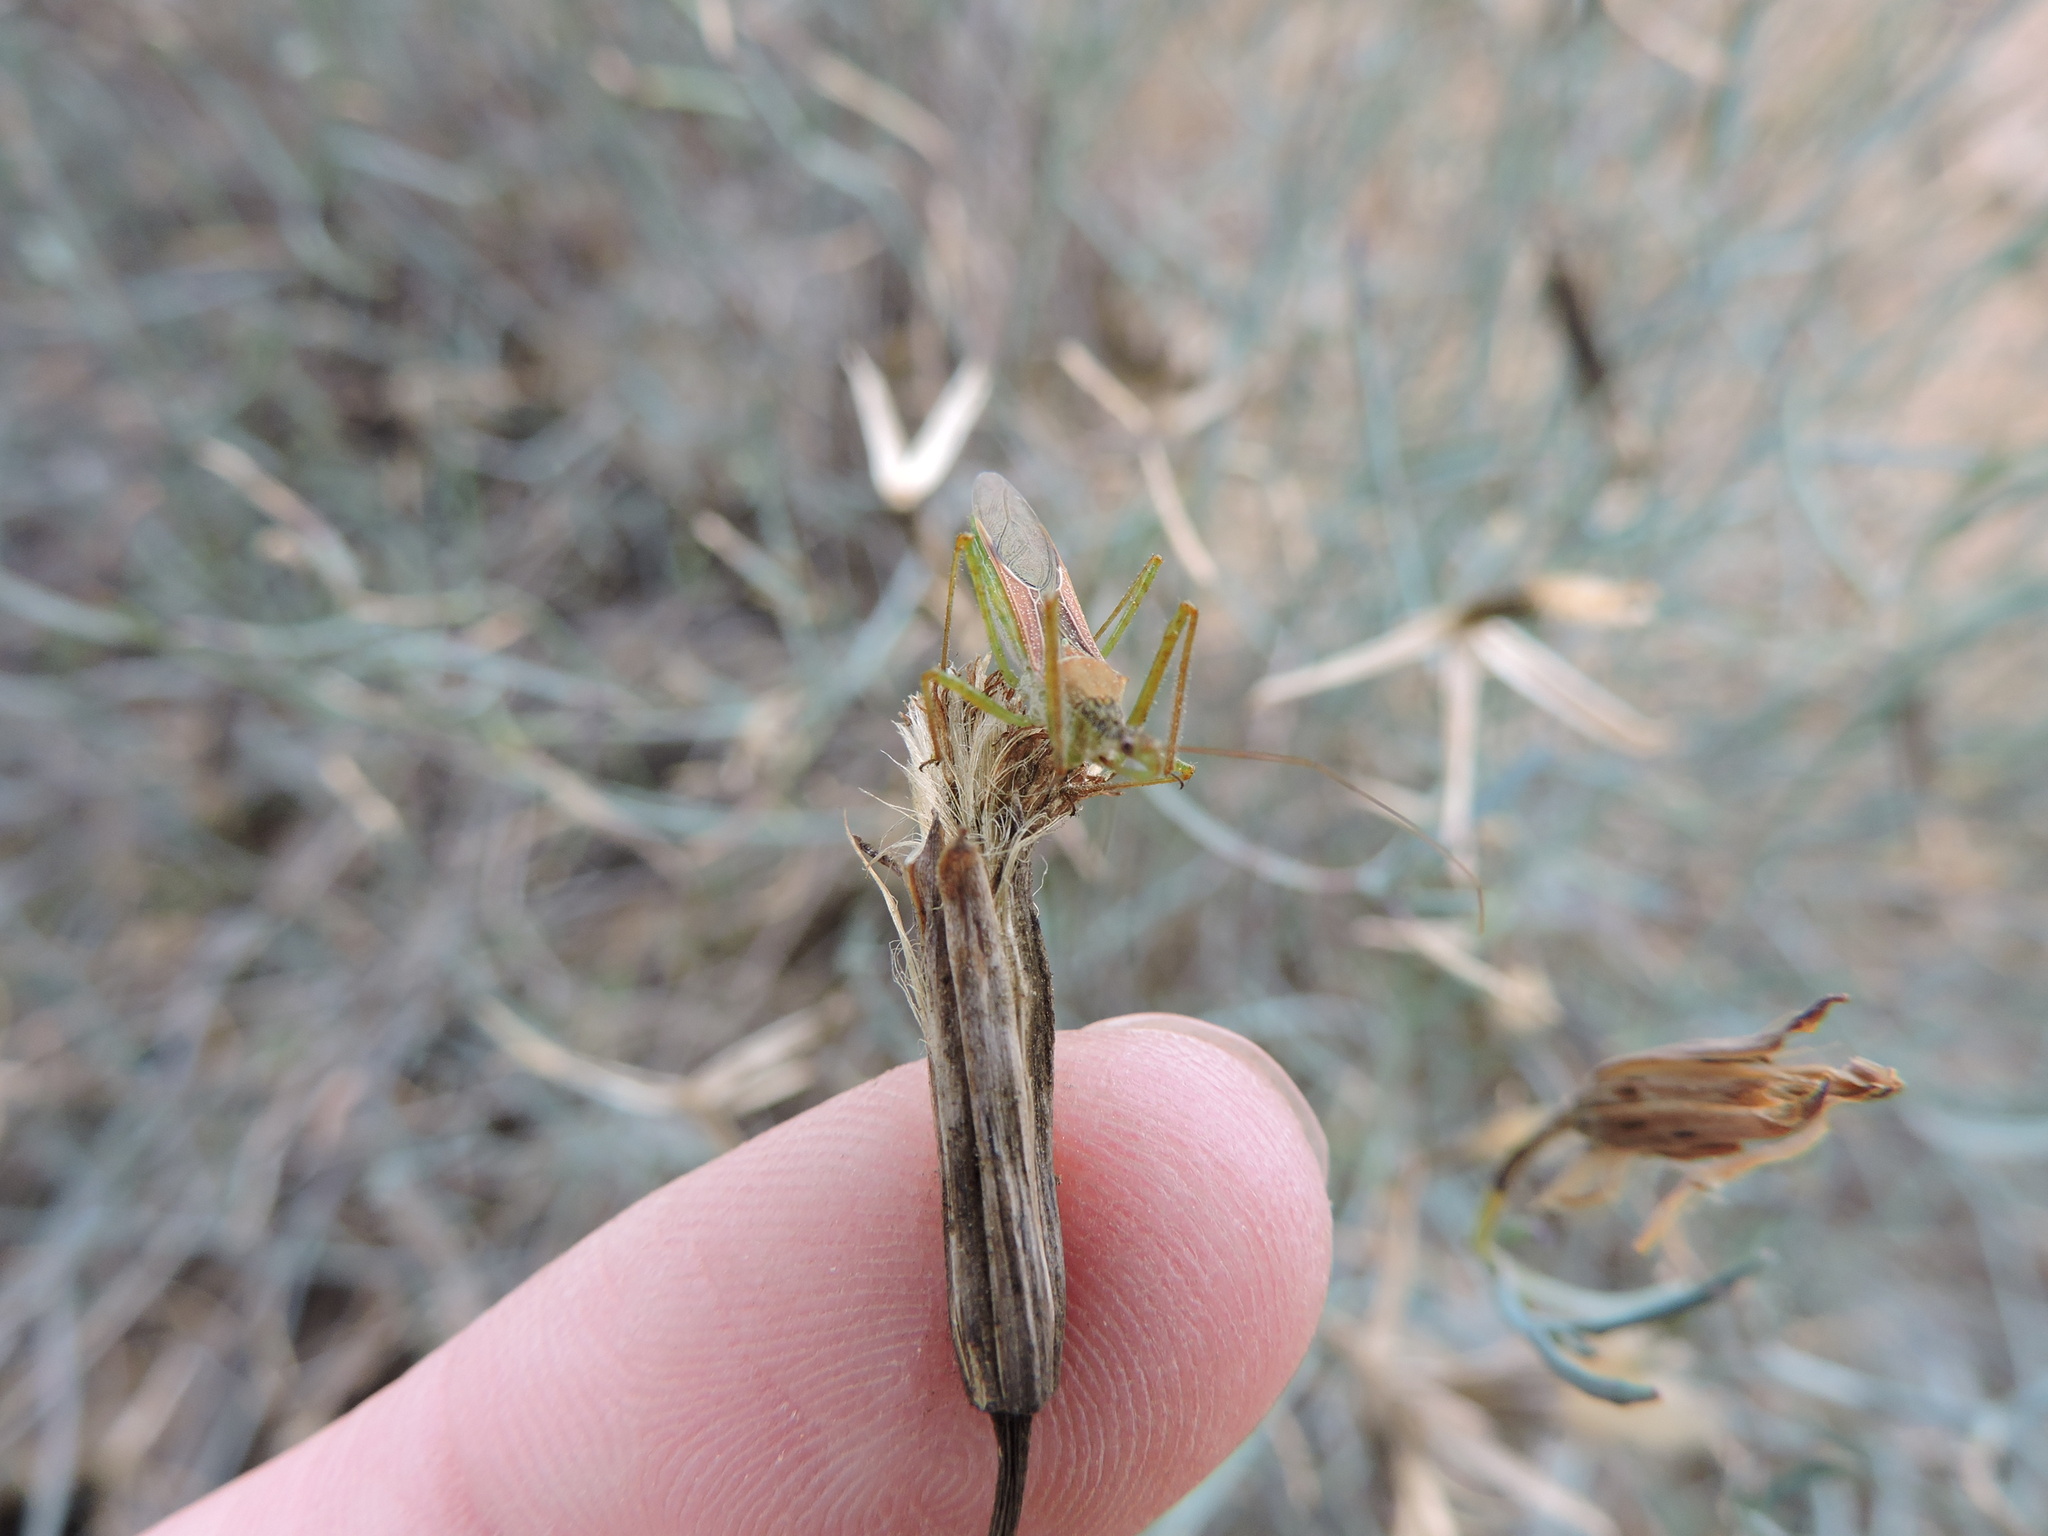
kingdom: Animalia
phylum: Arthropoda
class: Insecta
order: Hemiptera
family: Reduviidae
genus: Zelus
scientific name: Zelus renardii
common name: Assassin bug
